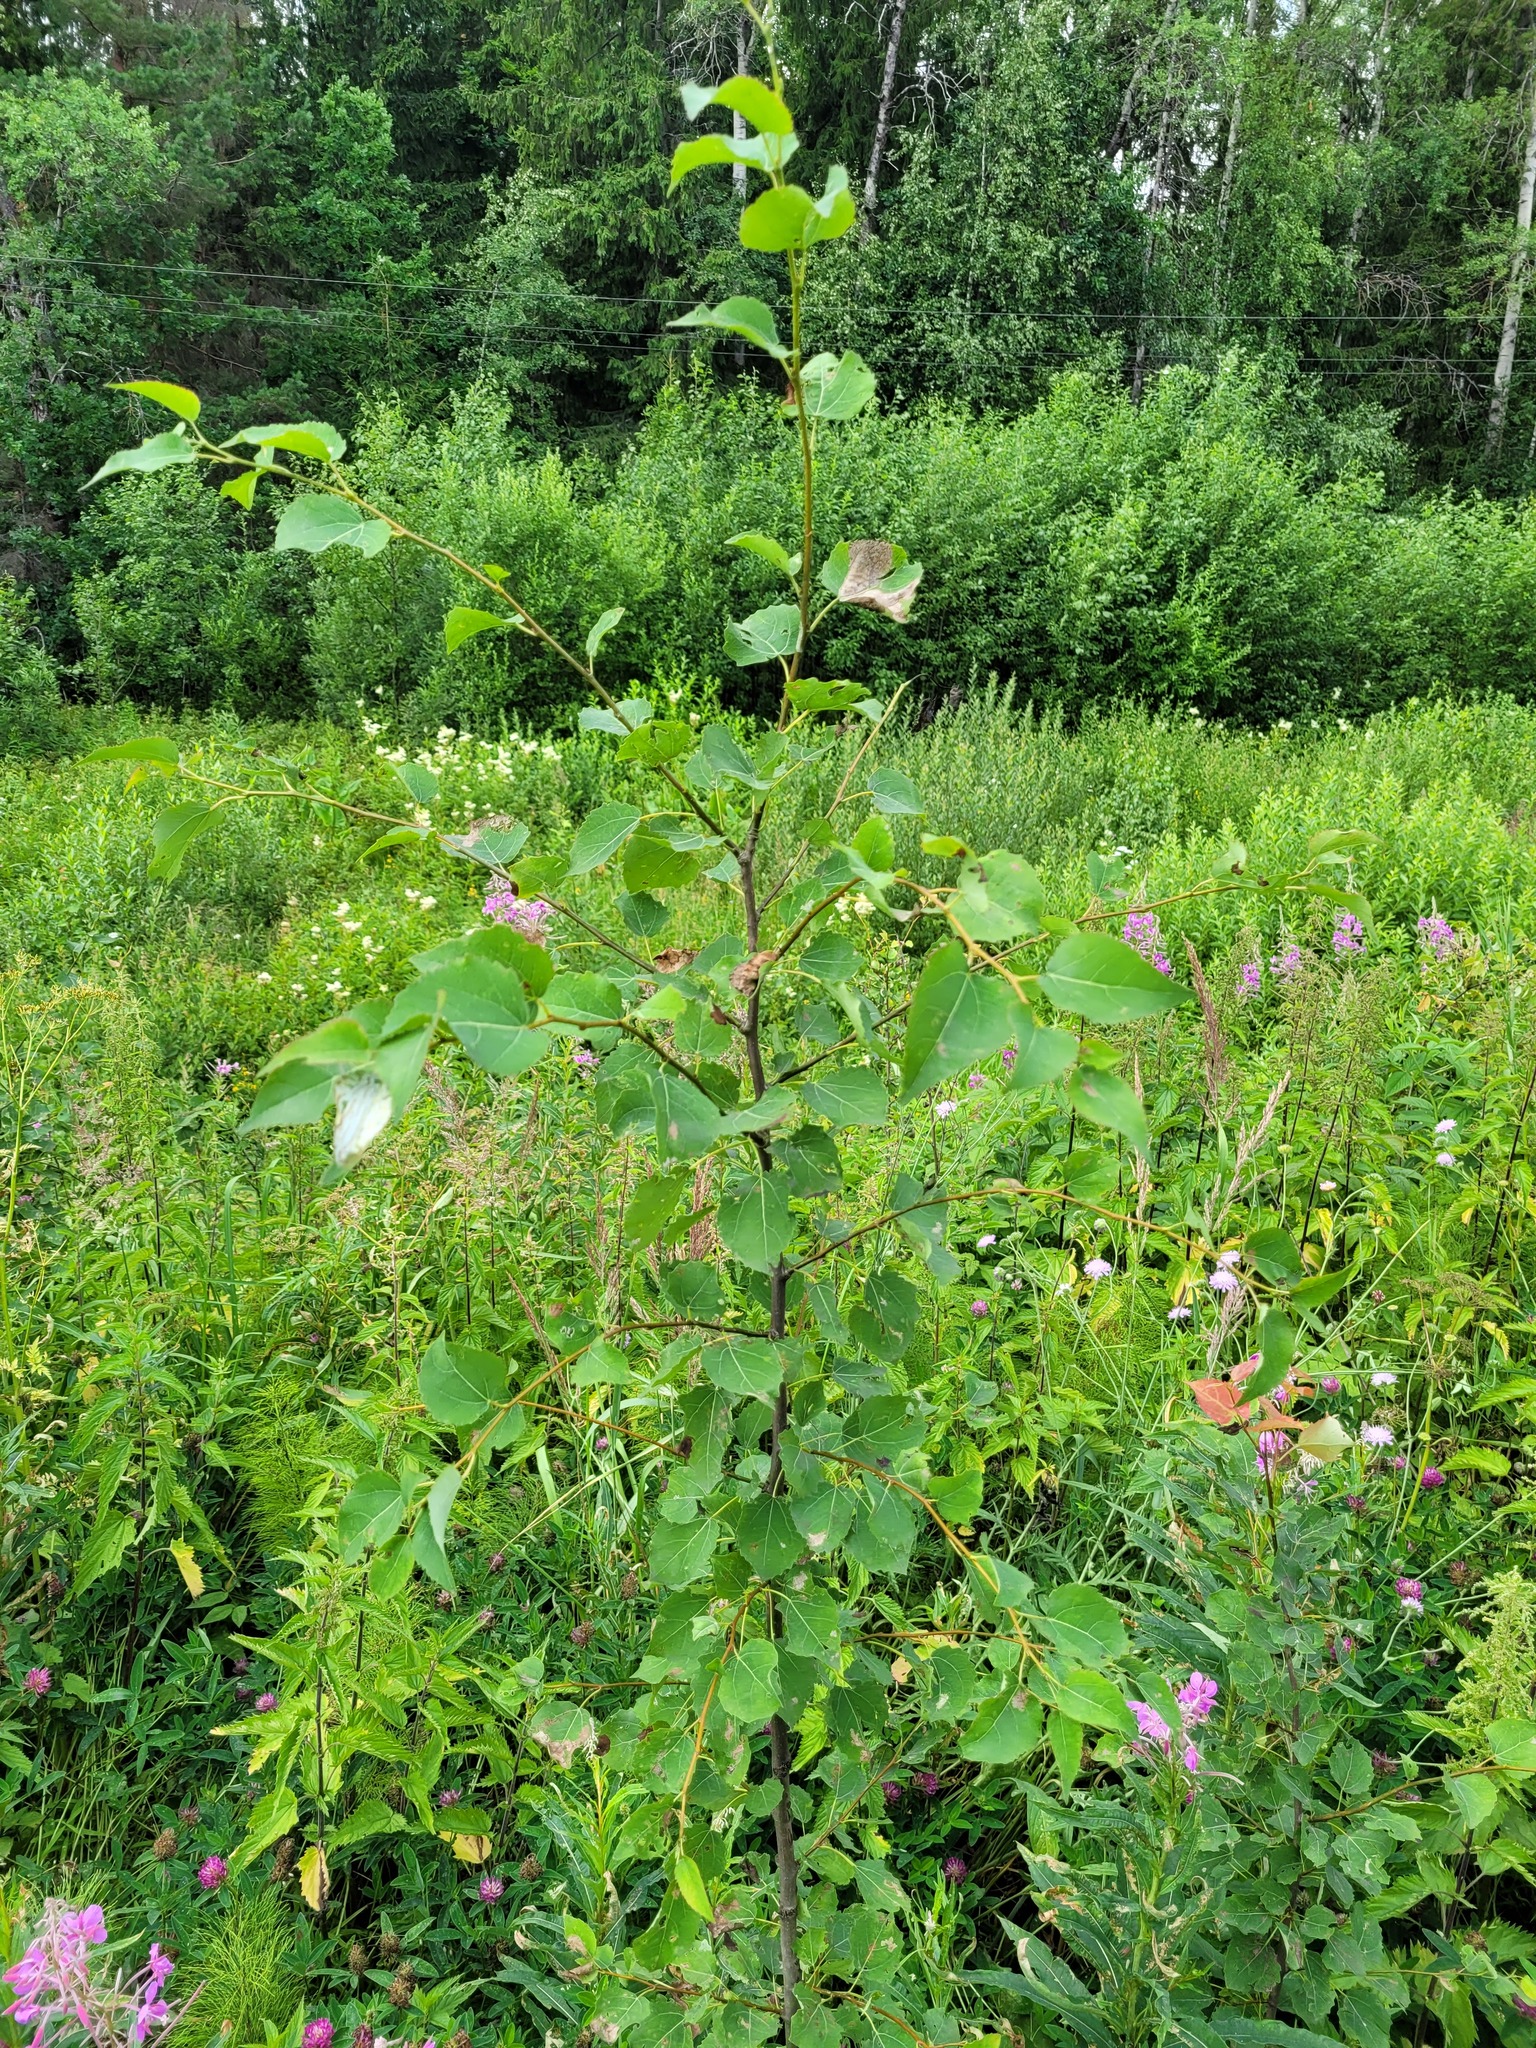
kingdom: Plantae
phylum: Tracheophyta
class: Magnoliopsida
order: Malpighiales
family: Salicaceae
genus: Populus
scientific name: Populus tremula
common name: European aspen
